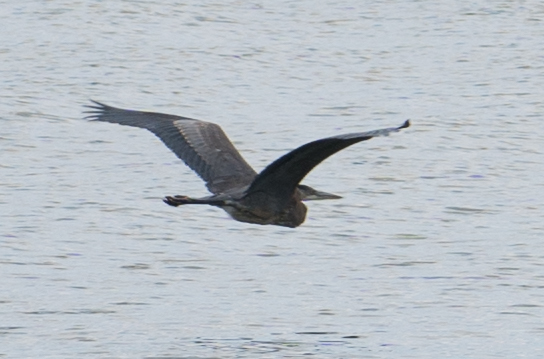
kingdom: Animalia
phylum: Chordata
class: Aves
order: Pelecaniformes
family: Ardeidae
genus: Ardea
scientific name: Ardea herodias
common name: Great blue heron
